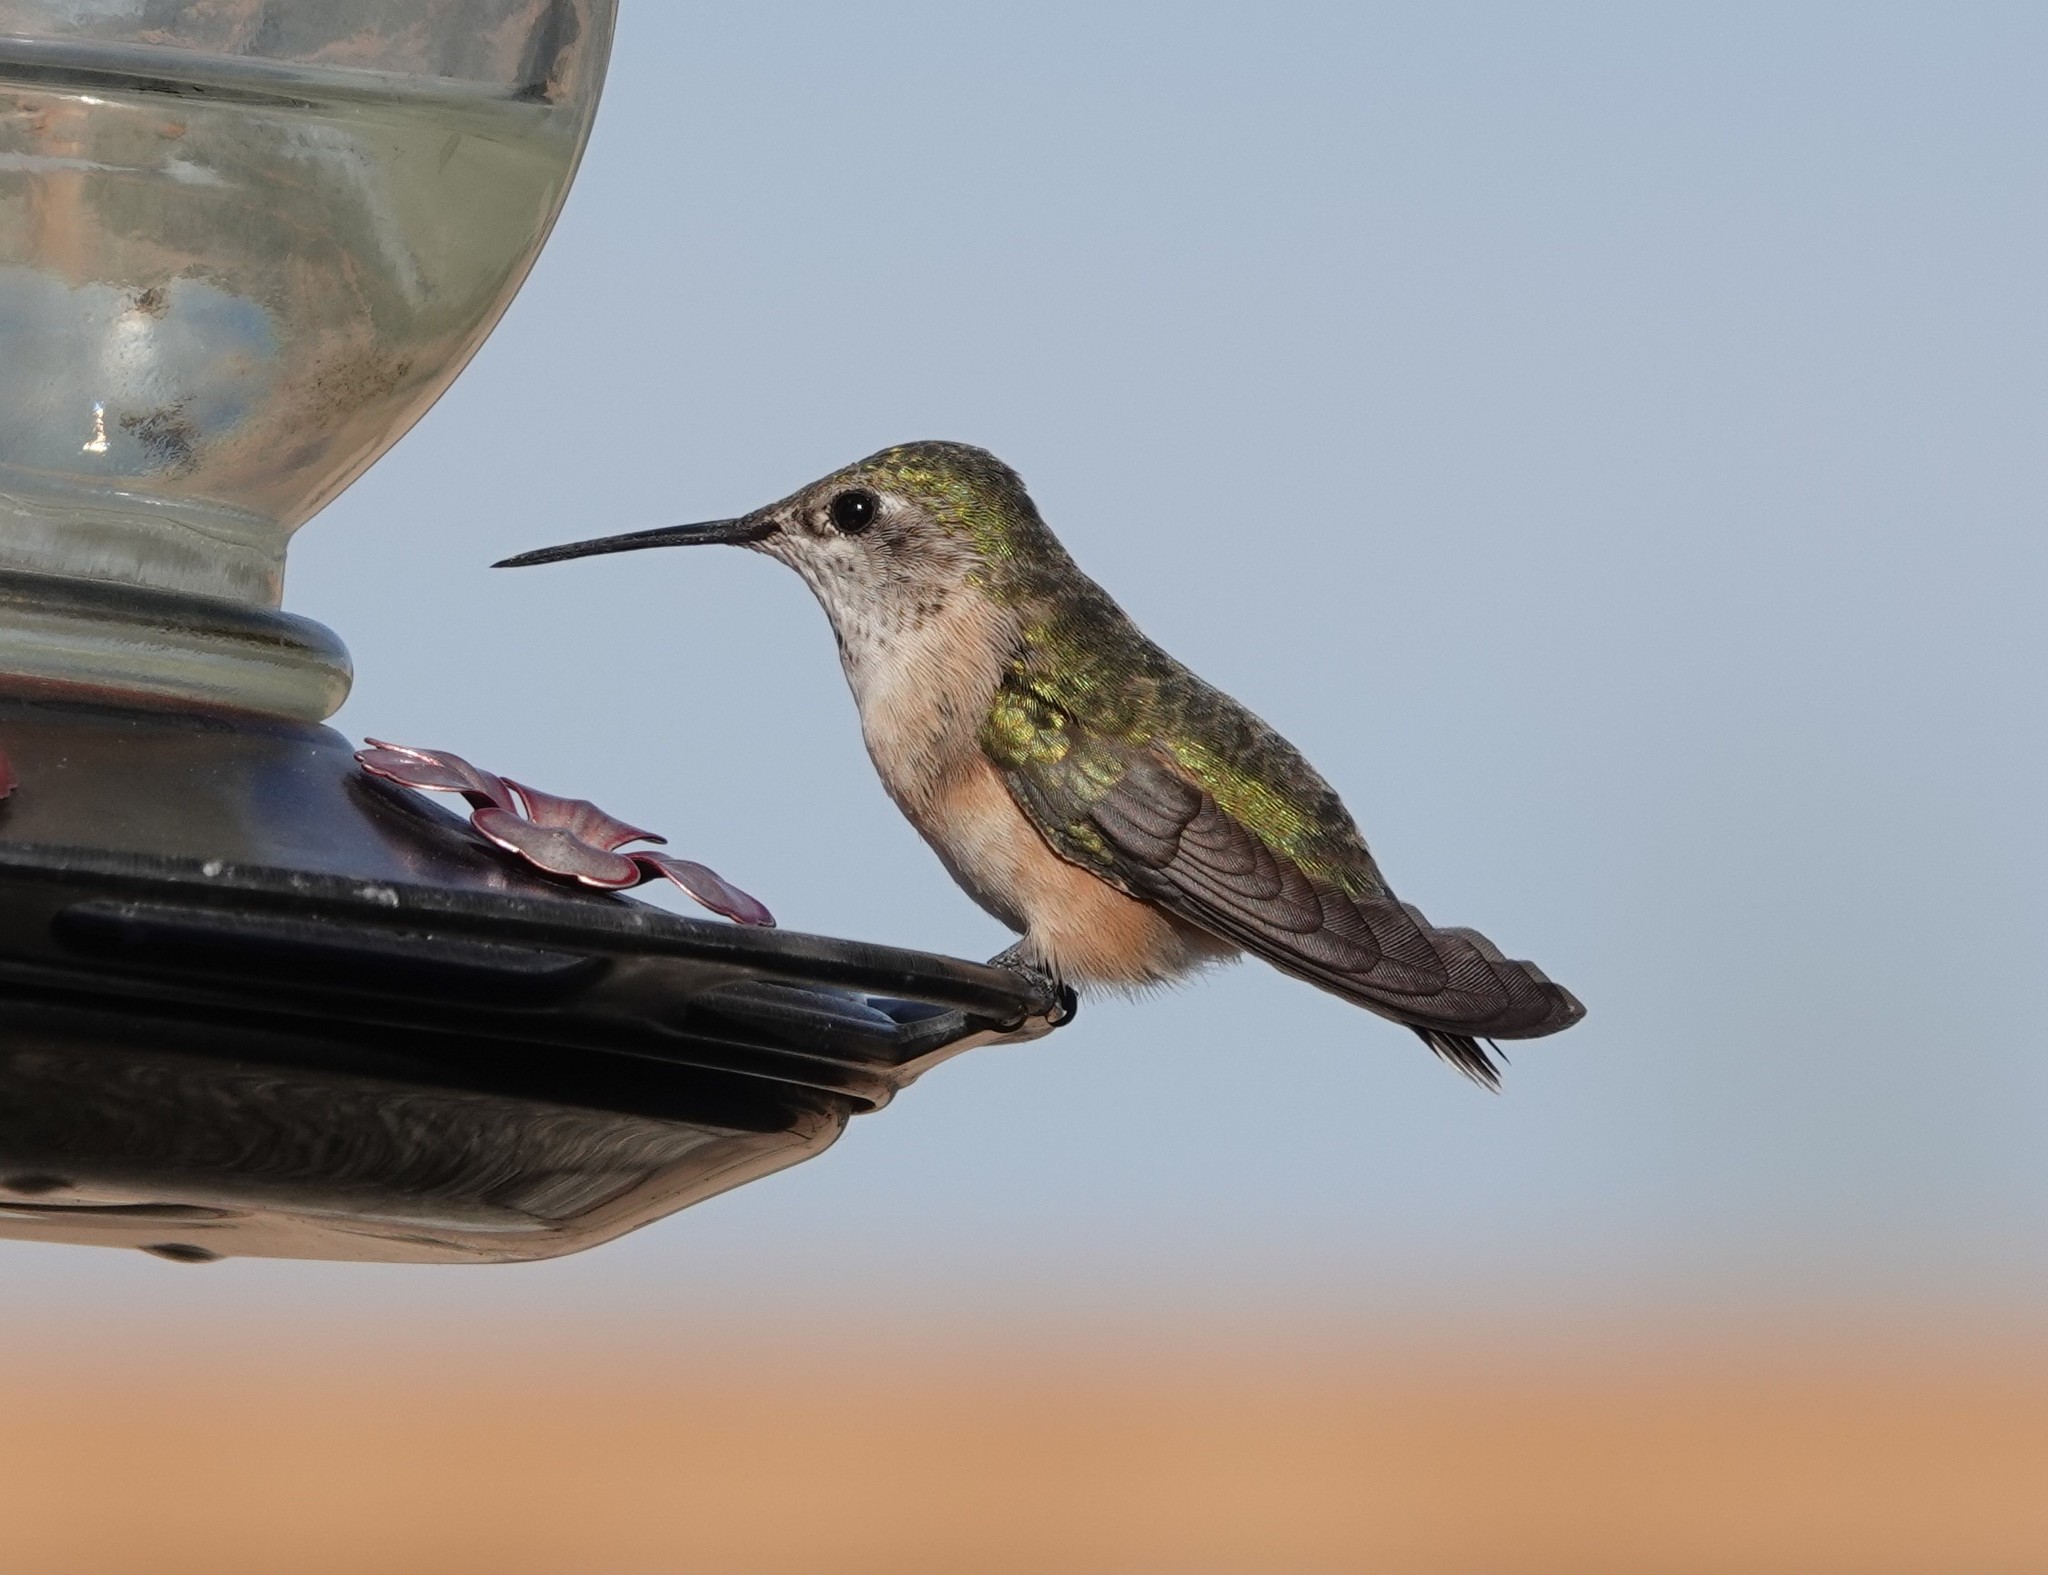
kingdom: Animalia
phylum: Chordata
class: Aves
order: Apodiformes
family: Trochilidae
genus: Selasphorus
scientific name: Selasphorus calliope
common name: Calliope hummingbird
